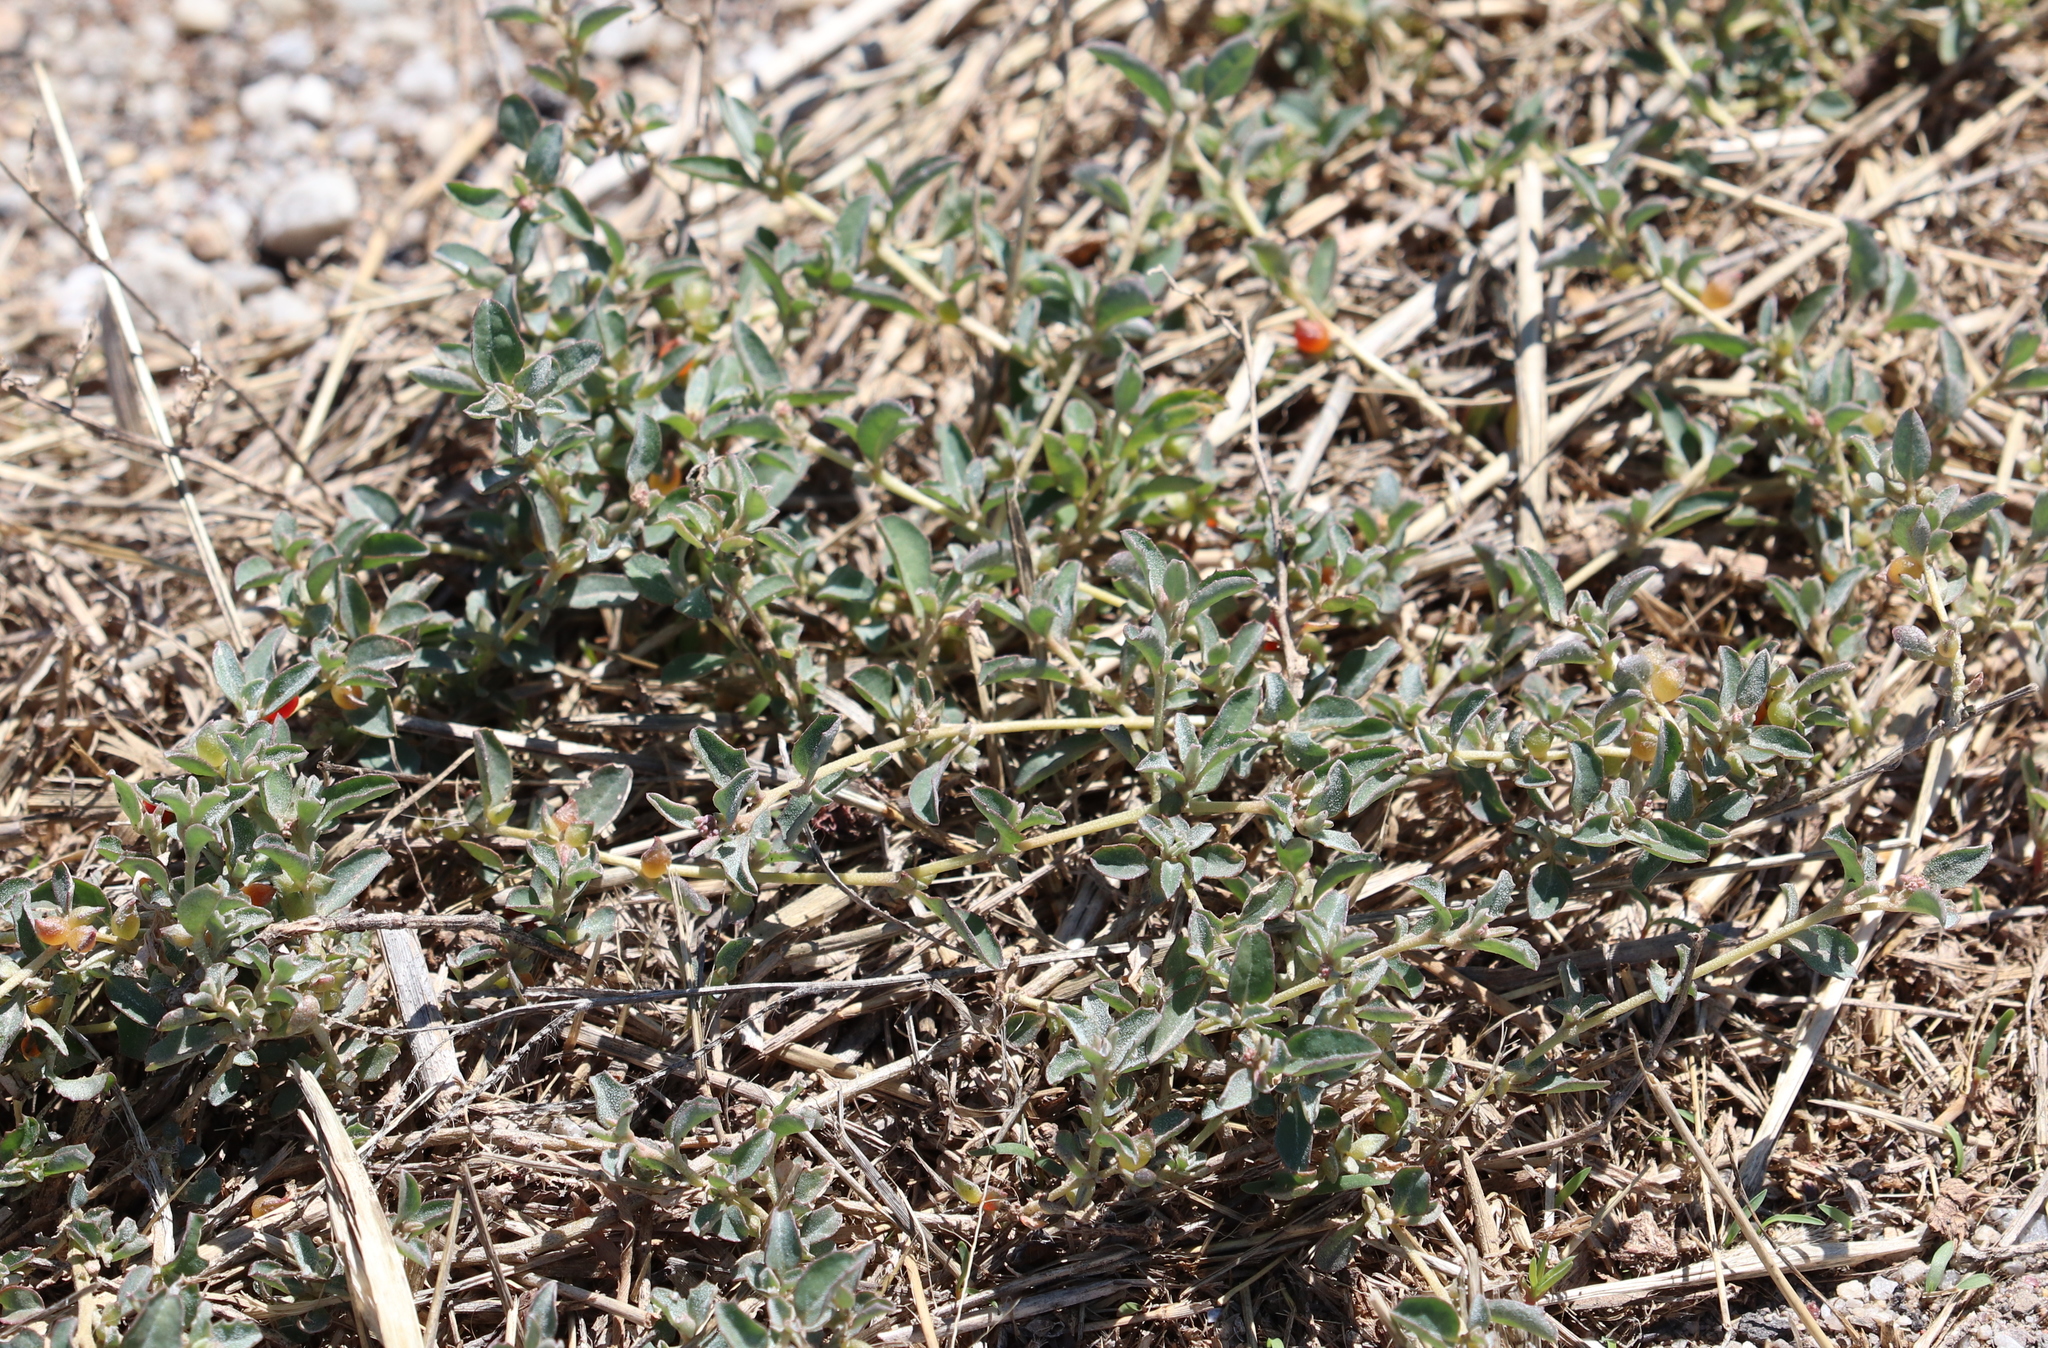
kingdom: Plantae
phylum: Tracheophyta
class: Magnoliopsida
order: Caryophyllales
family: Amaranthaceae
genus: Atriplex
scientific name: Atriplex semibaccata
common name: Australian saltbush
